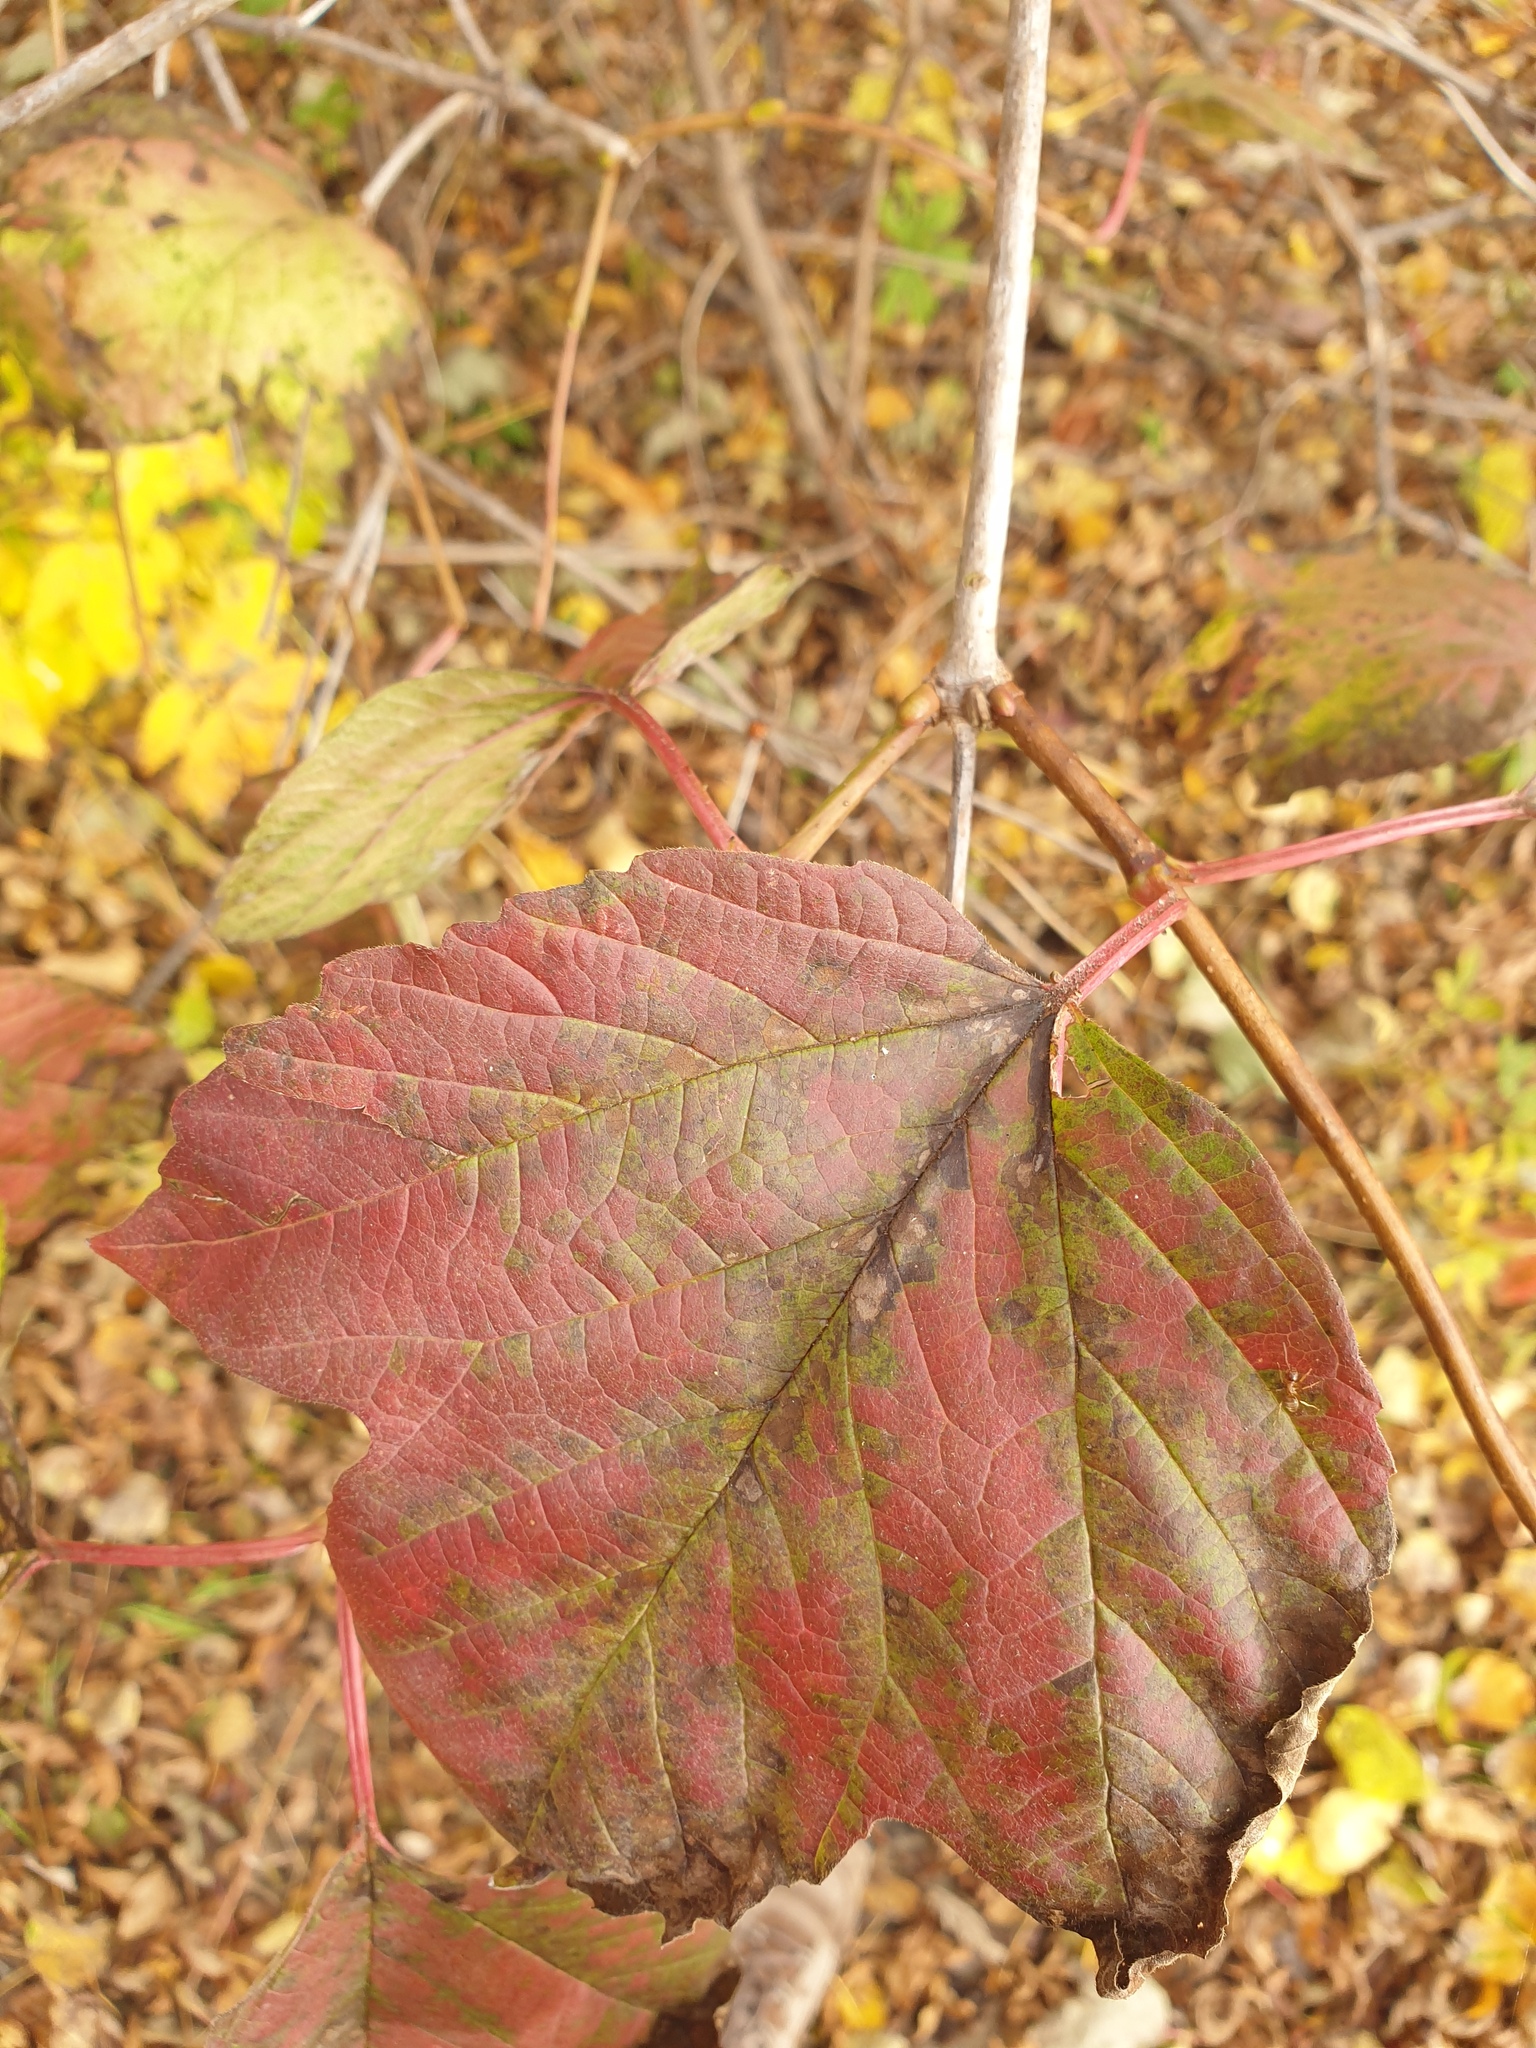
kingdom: Plantae
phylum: Tracheophyta
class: Magnoliopsida
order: Dipsacales
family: Viburnaceae
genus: Viburnum
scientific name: Viburnum trilobum
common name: American cranberrybush
